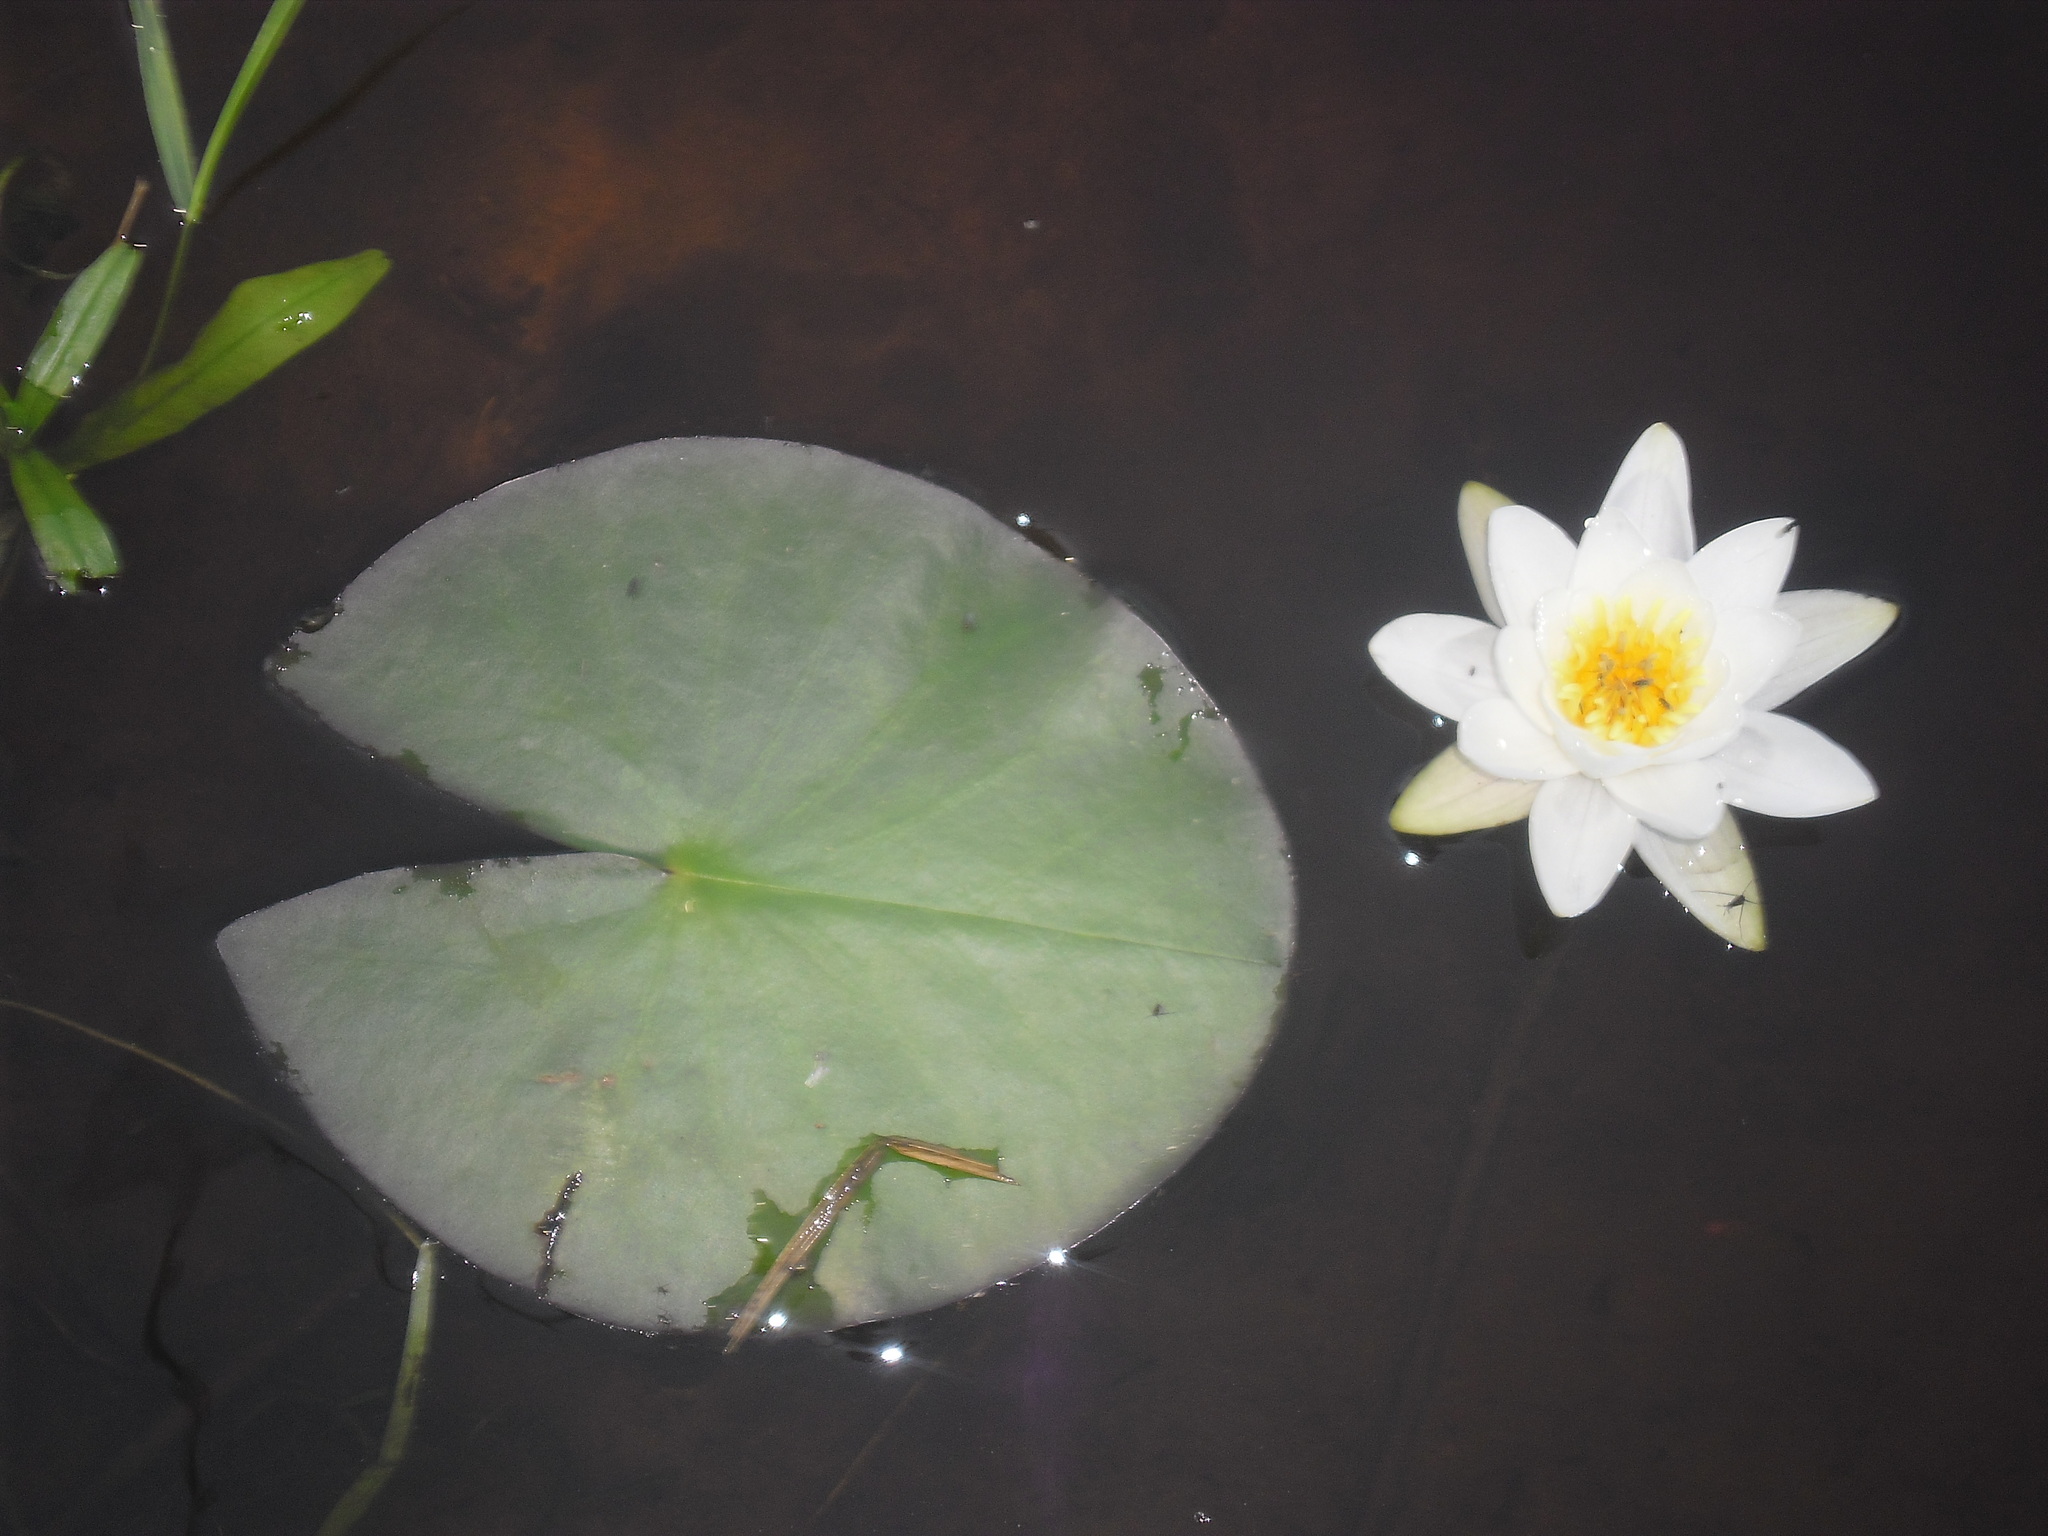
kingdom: Plantae
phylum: Tracheophyta
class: Magnoliopsida
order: Nymphaeales
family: Nymphaeaceae
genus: Nymphaea
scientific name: Nymphaea candida
